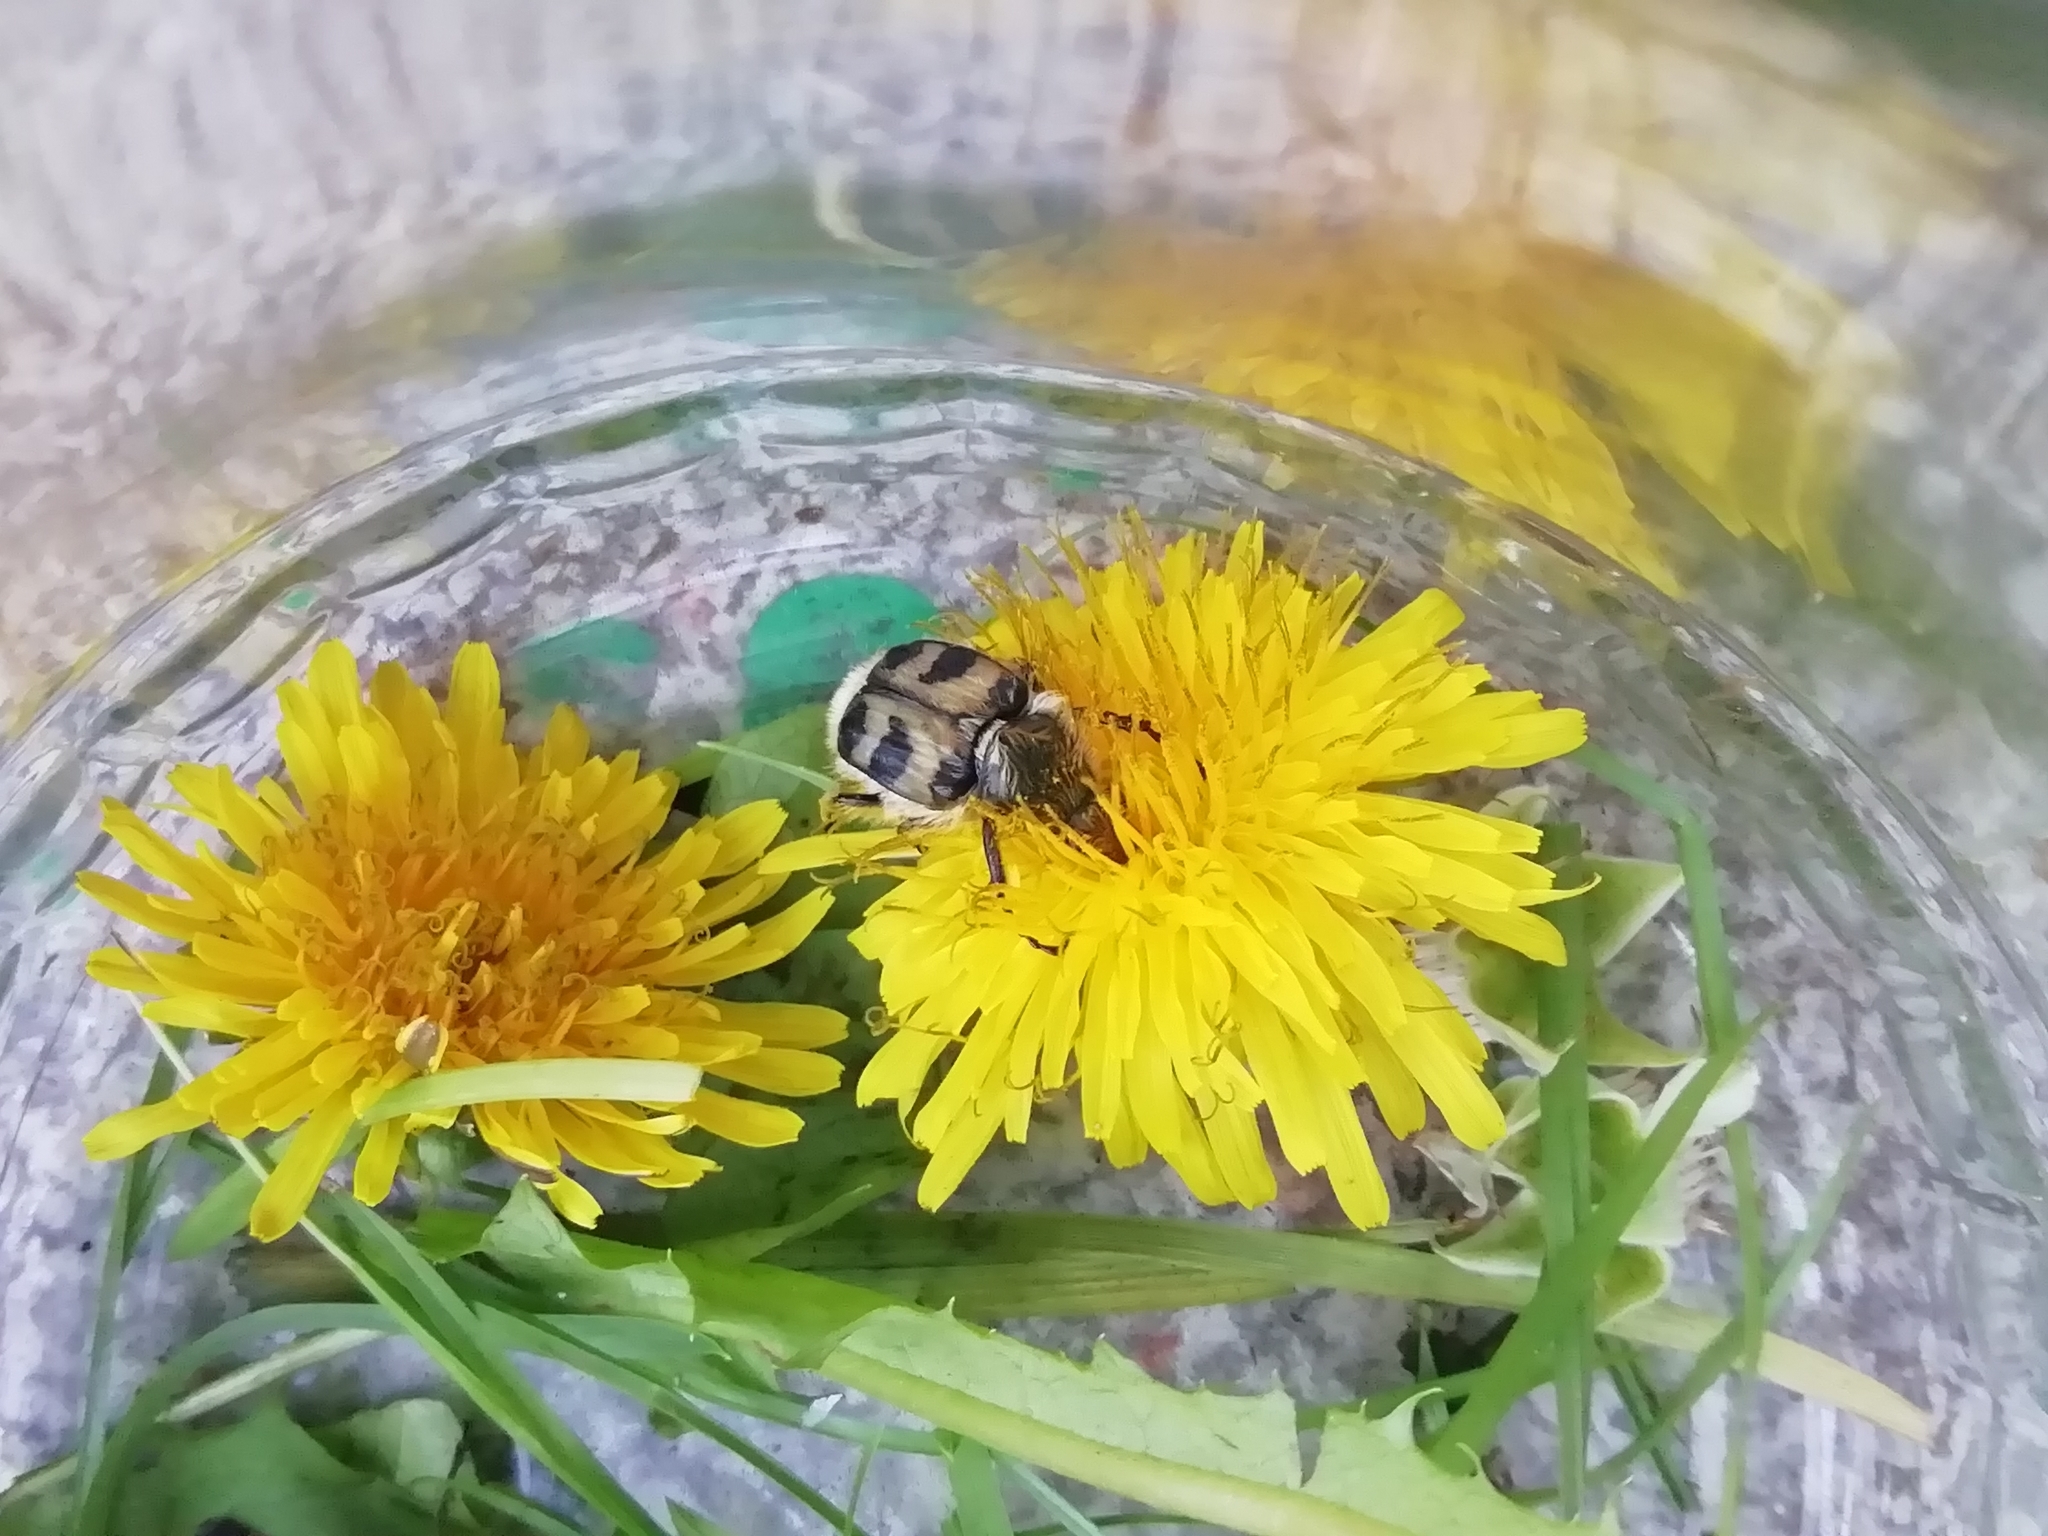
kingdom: Animalia
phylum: Arthropoda
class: Insecta
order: Coleoptera
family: Scarabaeidae
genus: Trichius
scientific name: Trichius fasciatus
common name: Bee beetle
